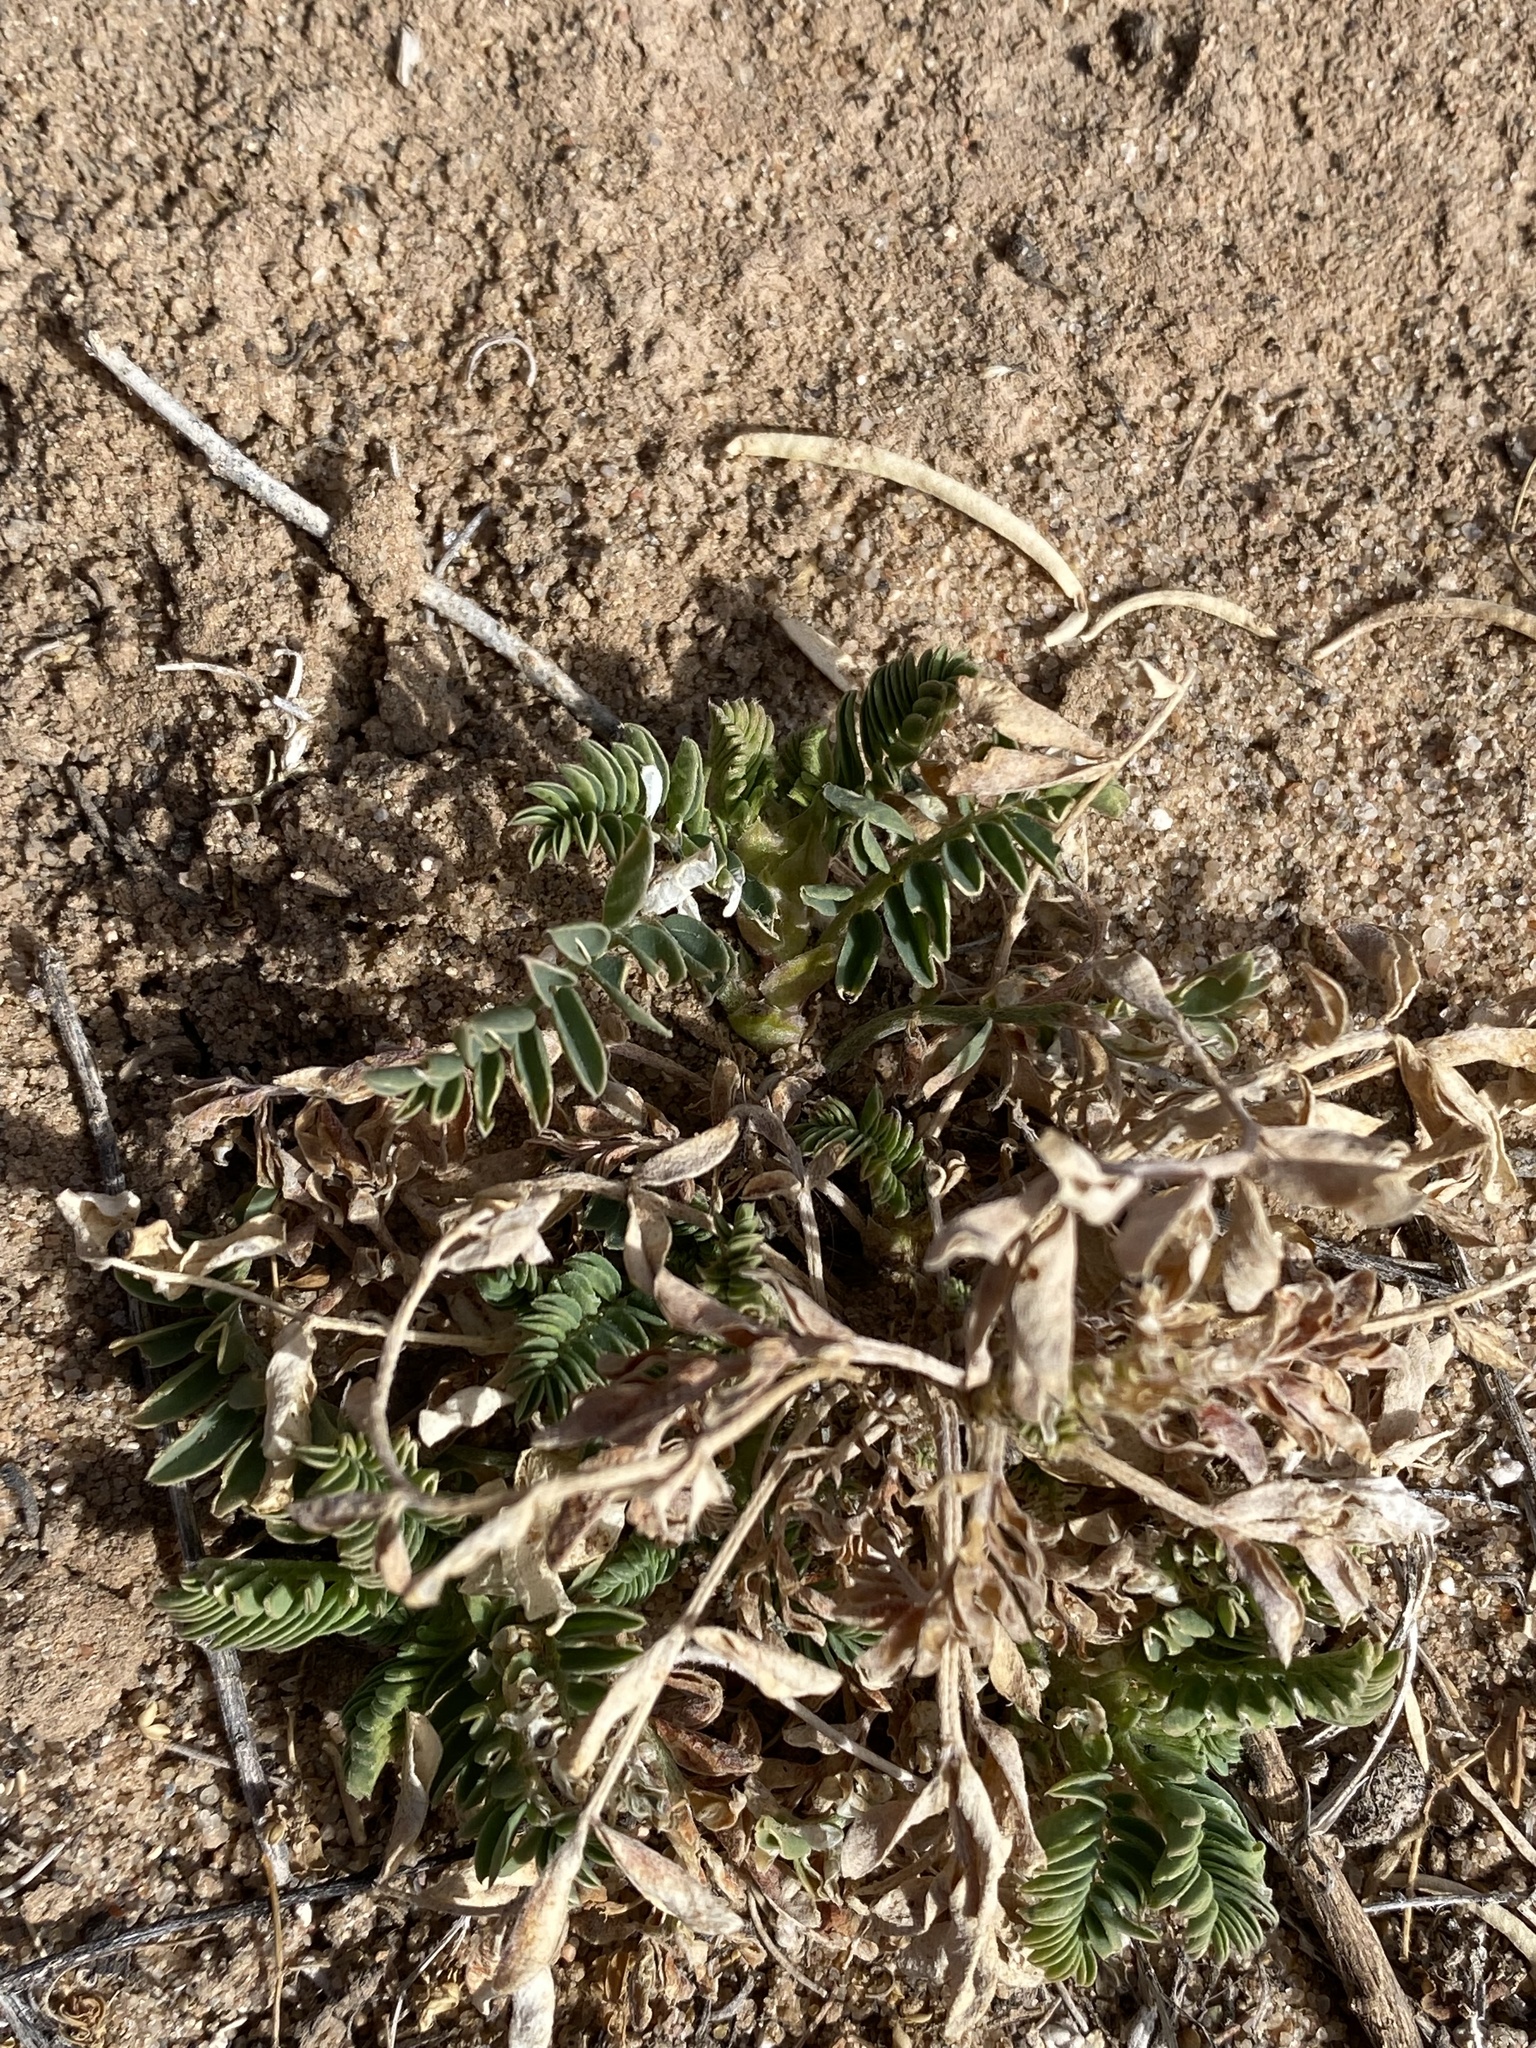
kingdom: Plantae
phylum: Tracheophyta
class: Magnoliopsida
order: Fabales
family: Fabaceae
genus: Astragalus
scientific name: Astragalus
